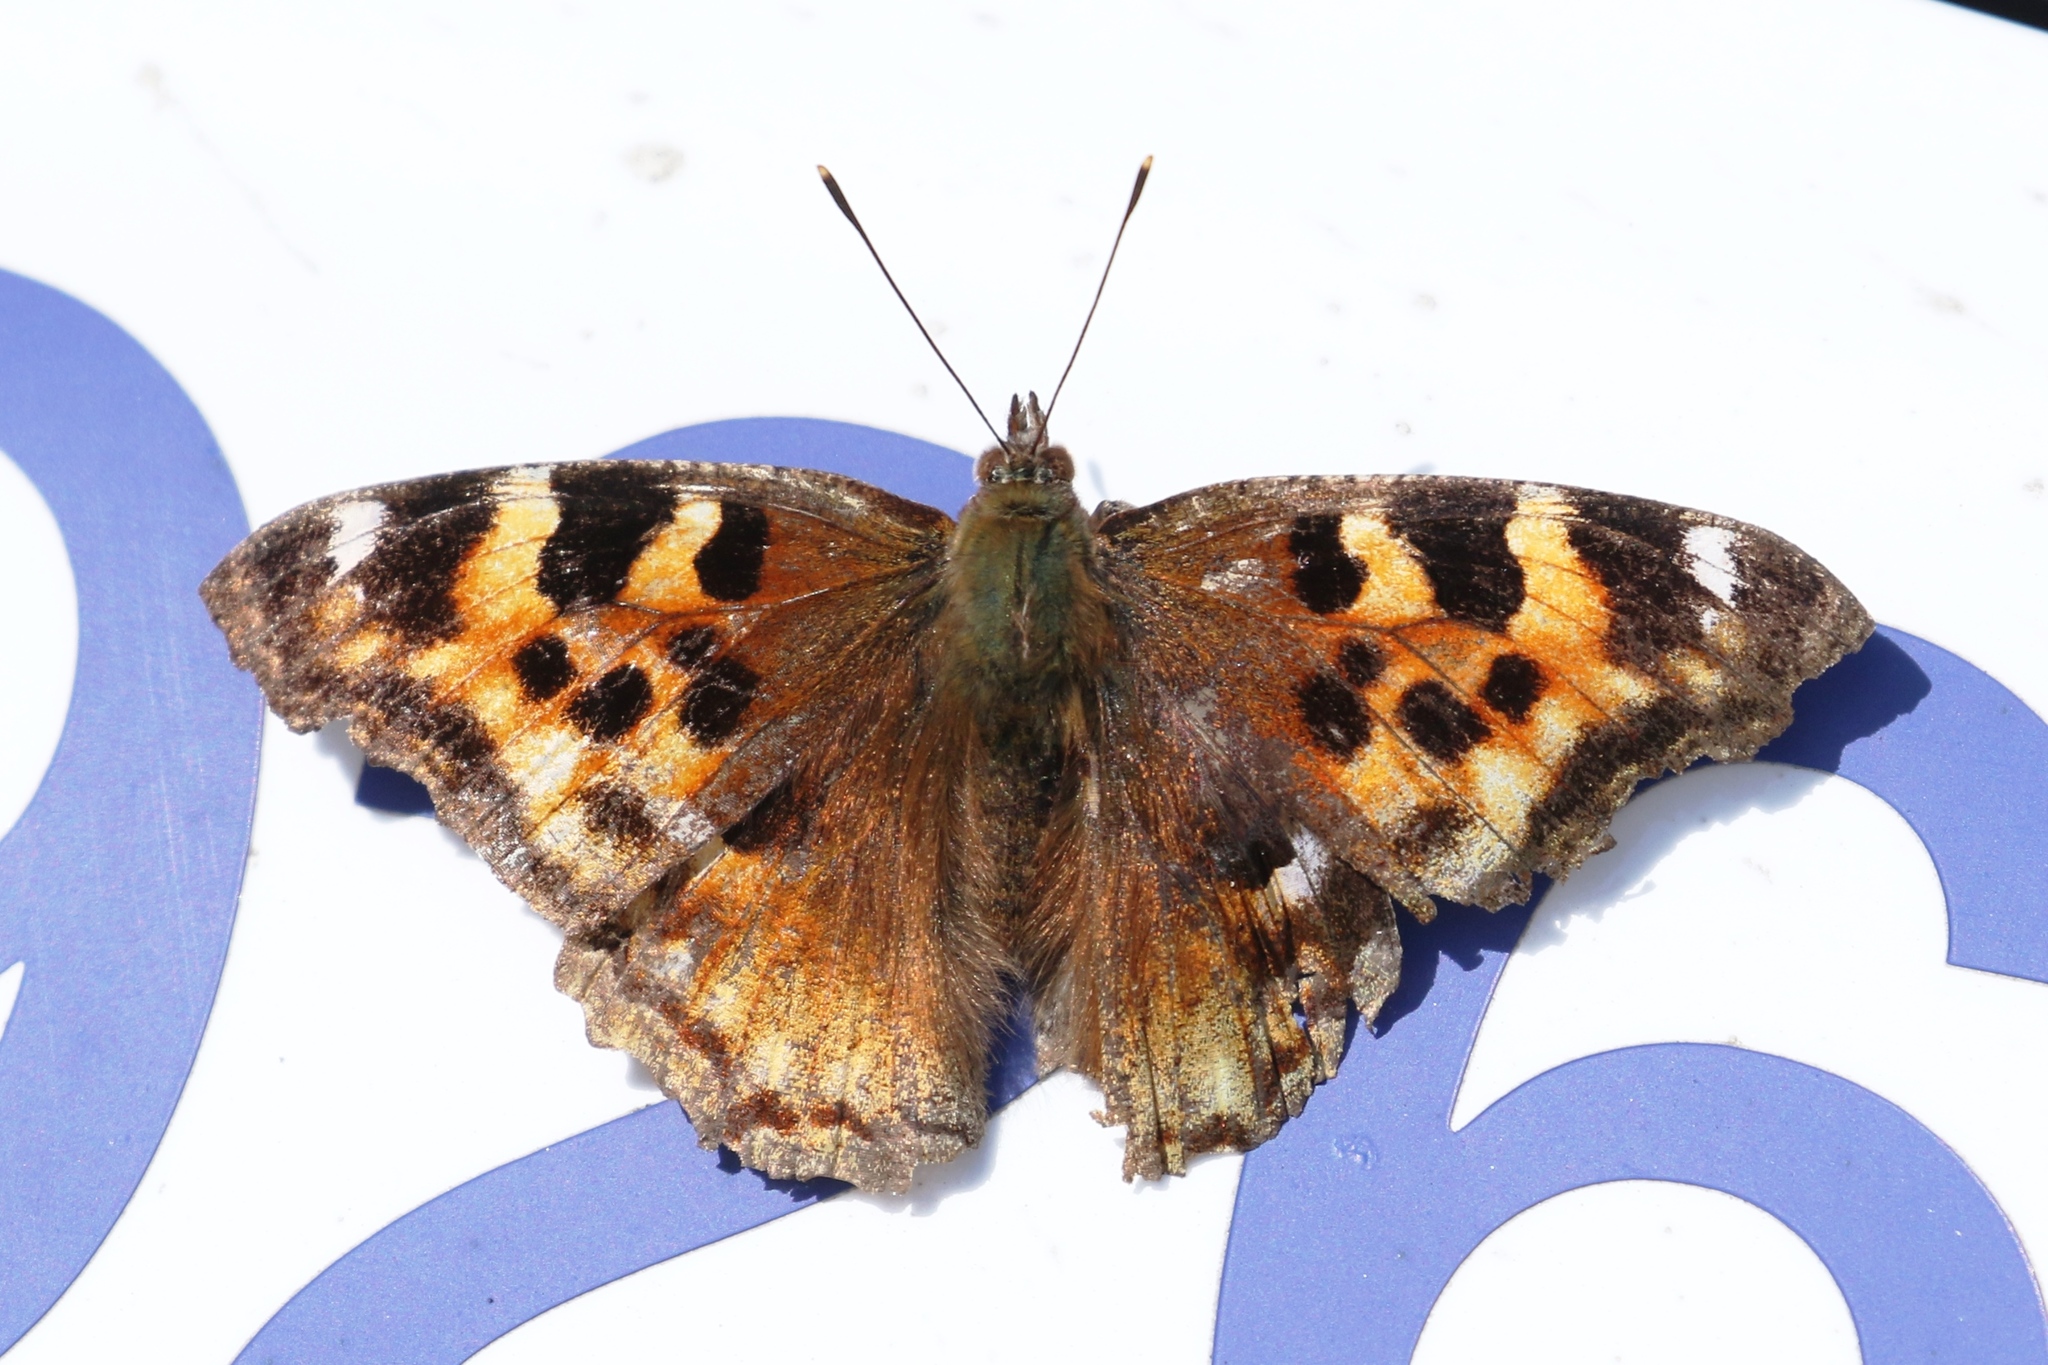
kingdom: Animalia
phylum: Arthropoda
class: Insecta
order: Lepidoptera
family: Nymphalidae
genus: Polygonia
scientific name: Polygonia vaualbum
